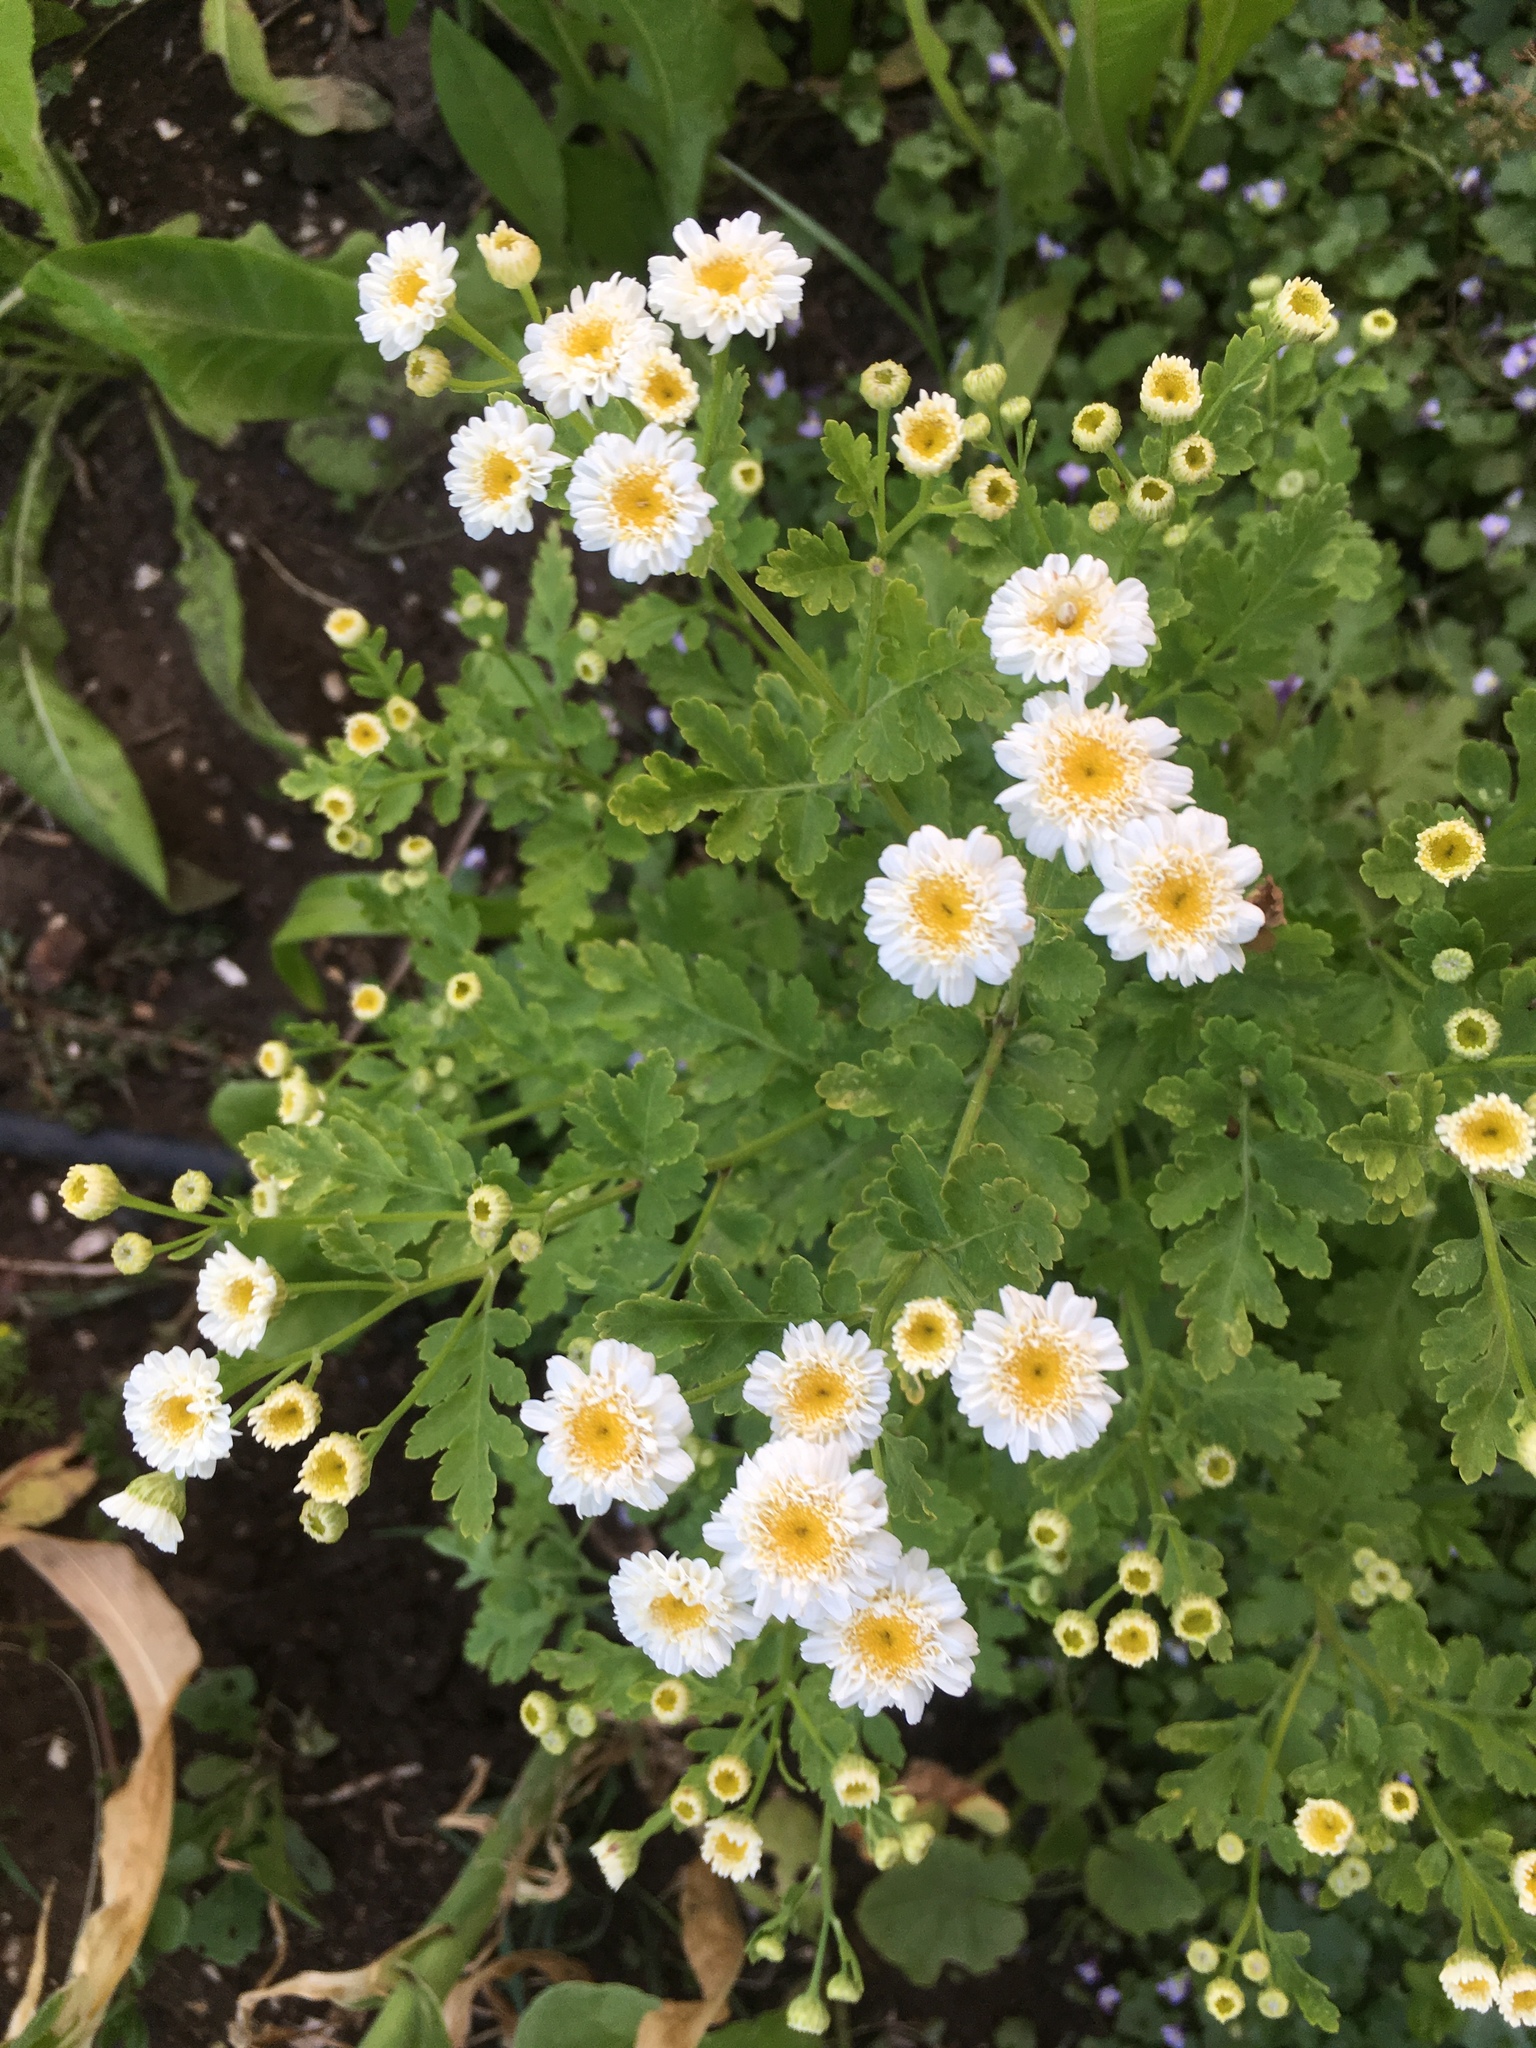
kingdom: Plantae
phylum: Tracheophyta
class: Magnoliopsida
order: Asterales
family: Asteraceae
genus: Tanacetum
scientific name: Tanacetum parthenium
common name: Feverfew
